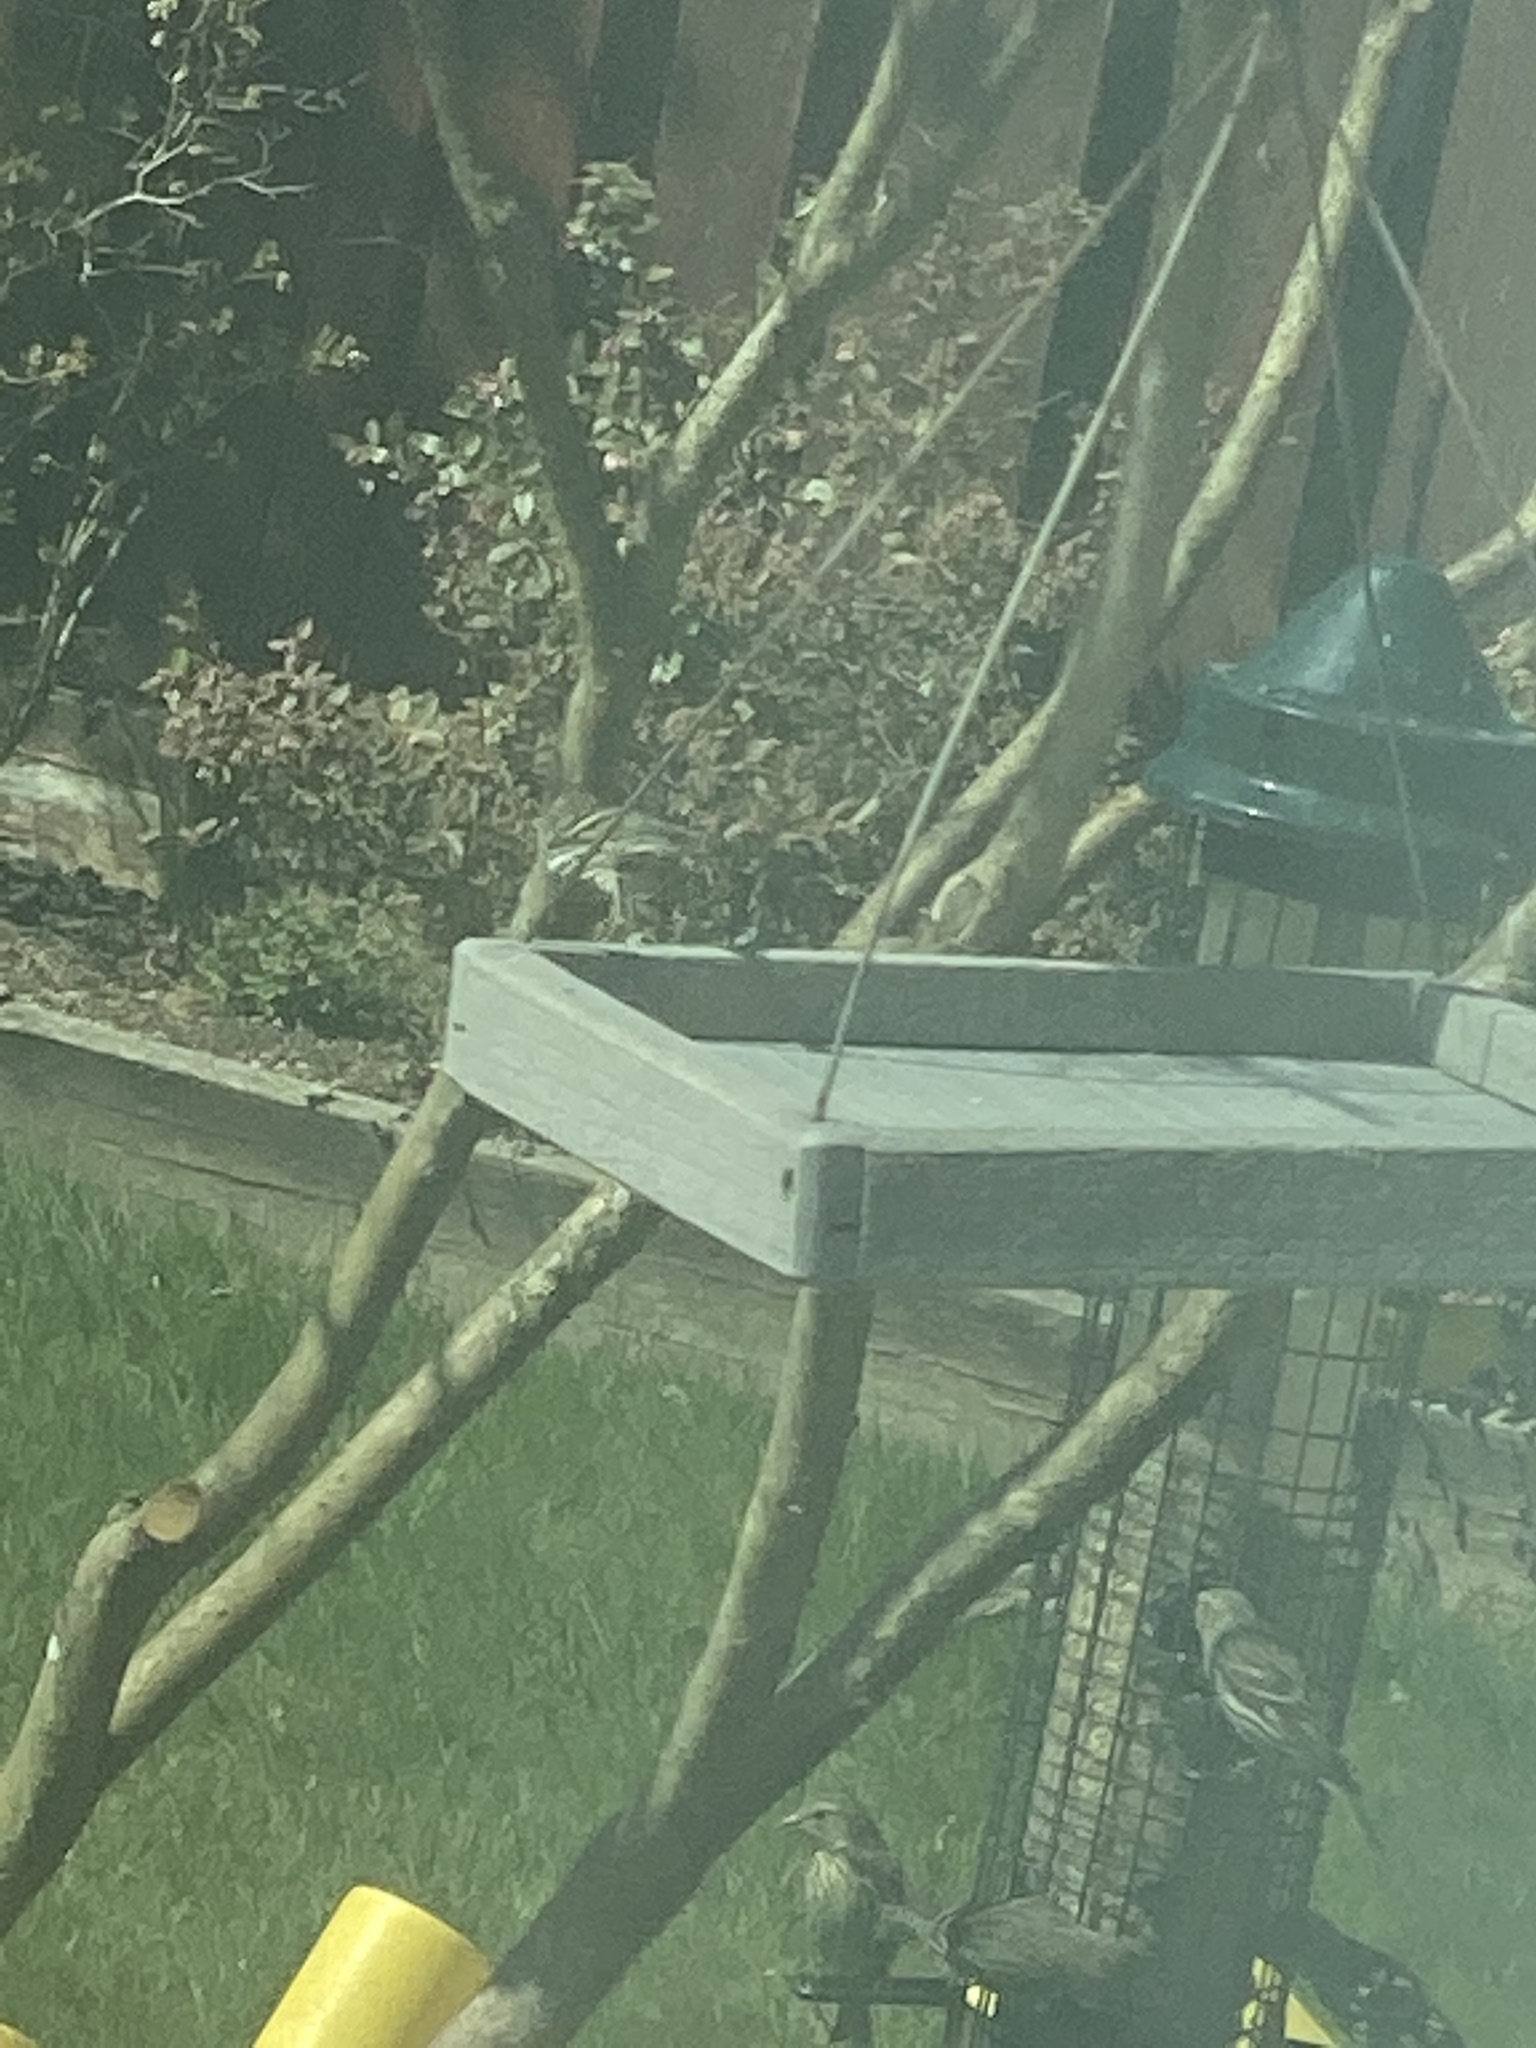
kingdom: Animalia
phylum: Chordata
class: Aves
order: Passeriformes
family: Fringillidae
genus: Spinus
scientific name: Spinus pinus
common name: Pine siskin
